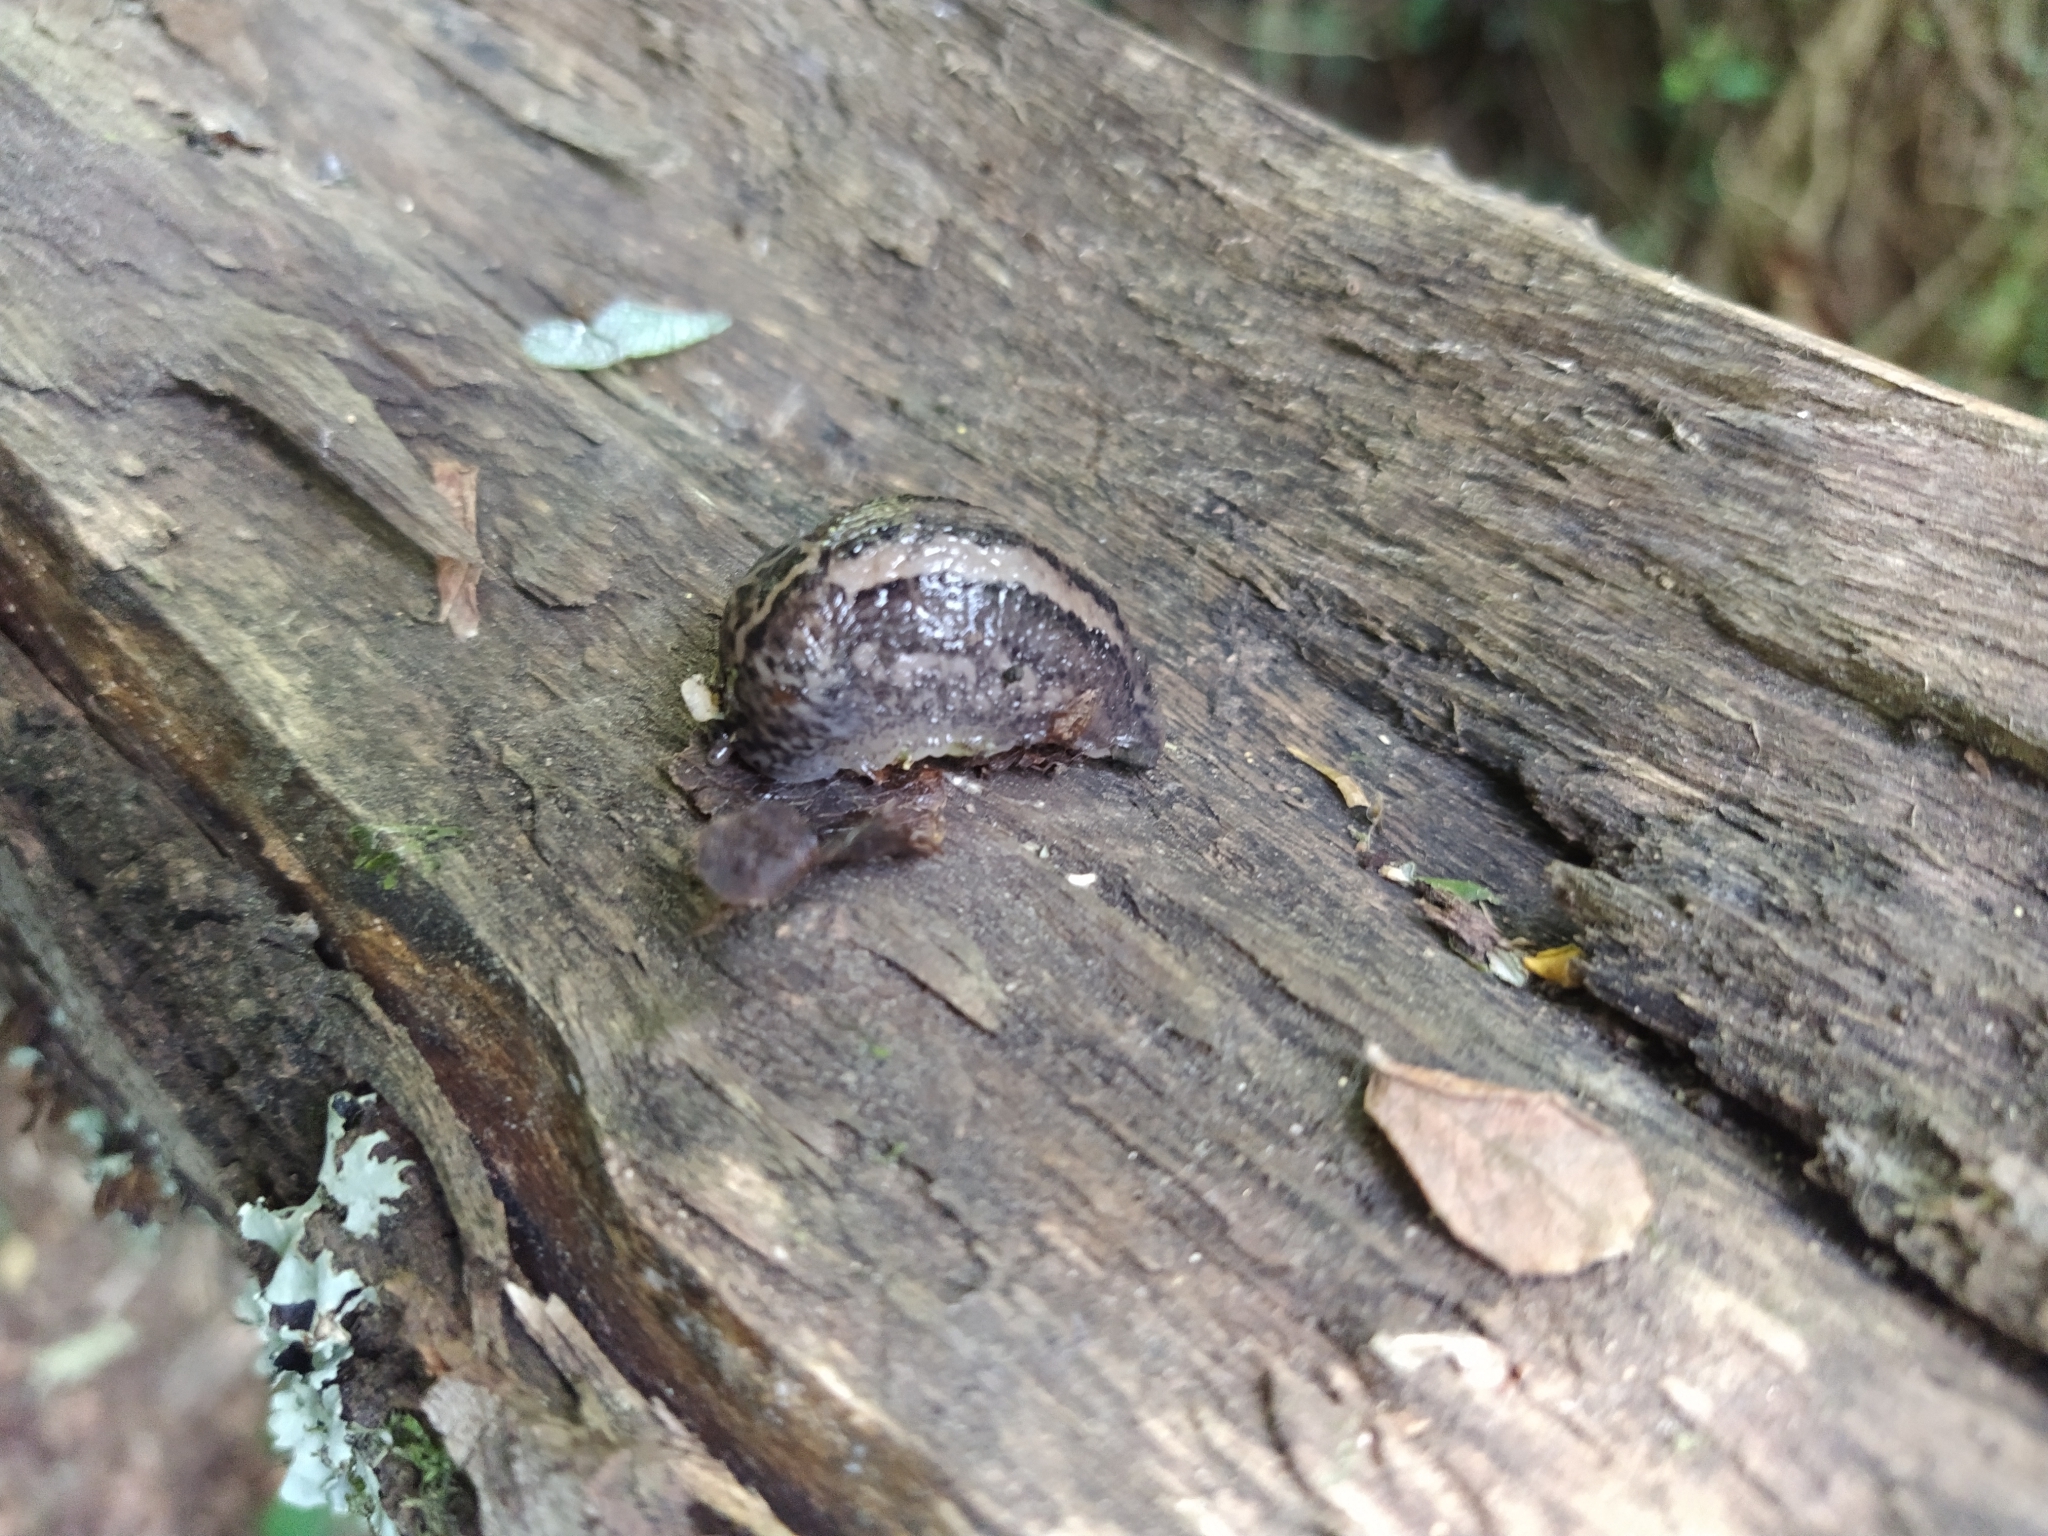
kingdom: Animalia
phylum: Mollusca
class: Gastropoda
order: Stylommatophora
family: Limacidae
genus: Limax
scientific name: Limax maximus
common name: Great grey slug
